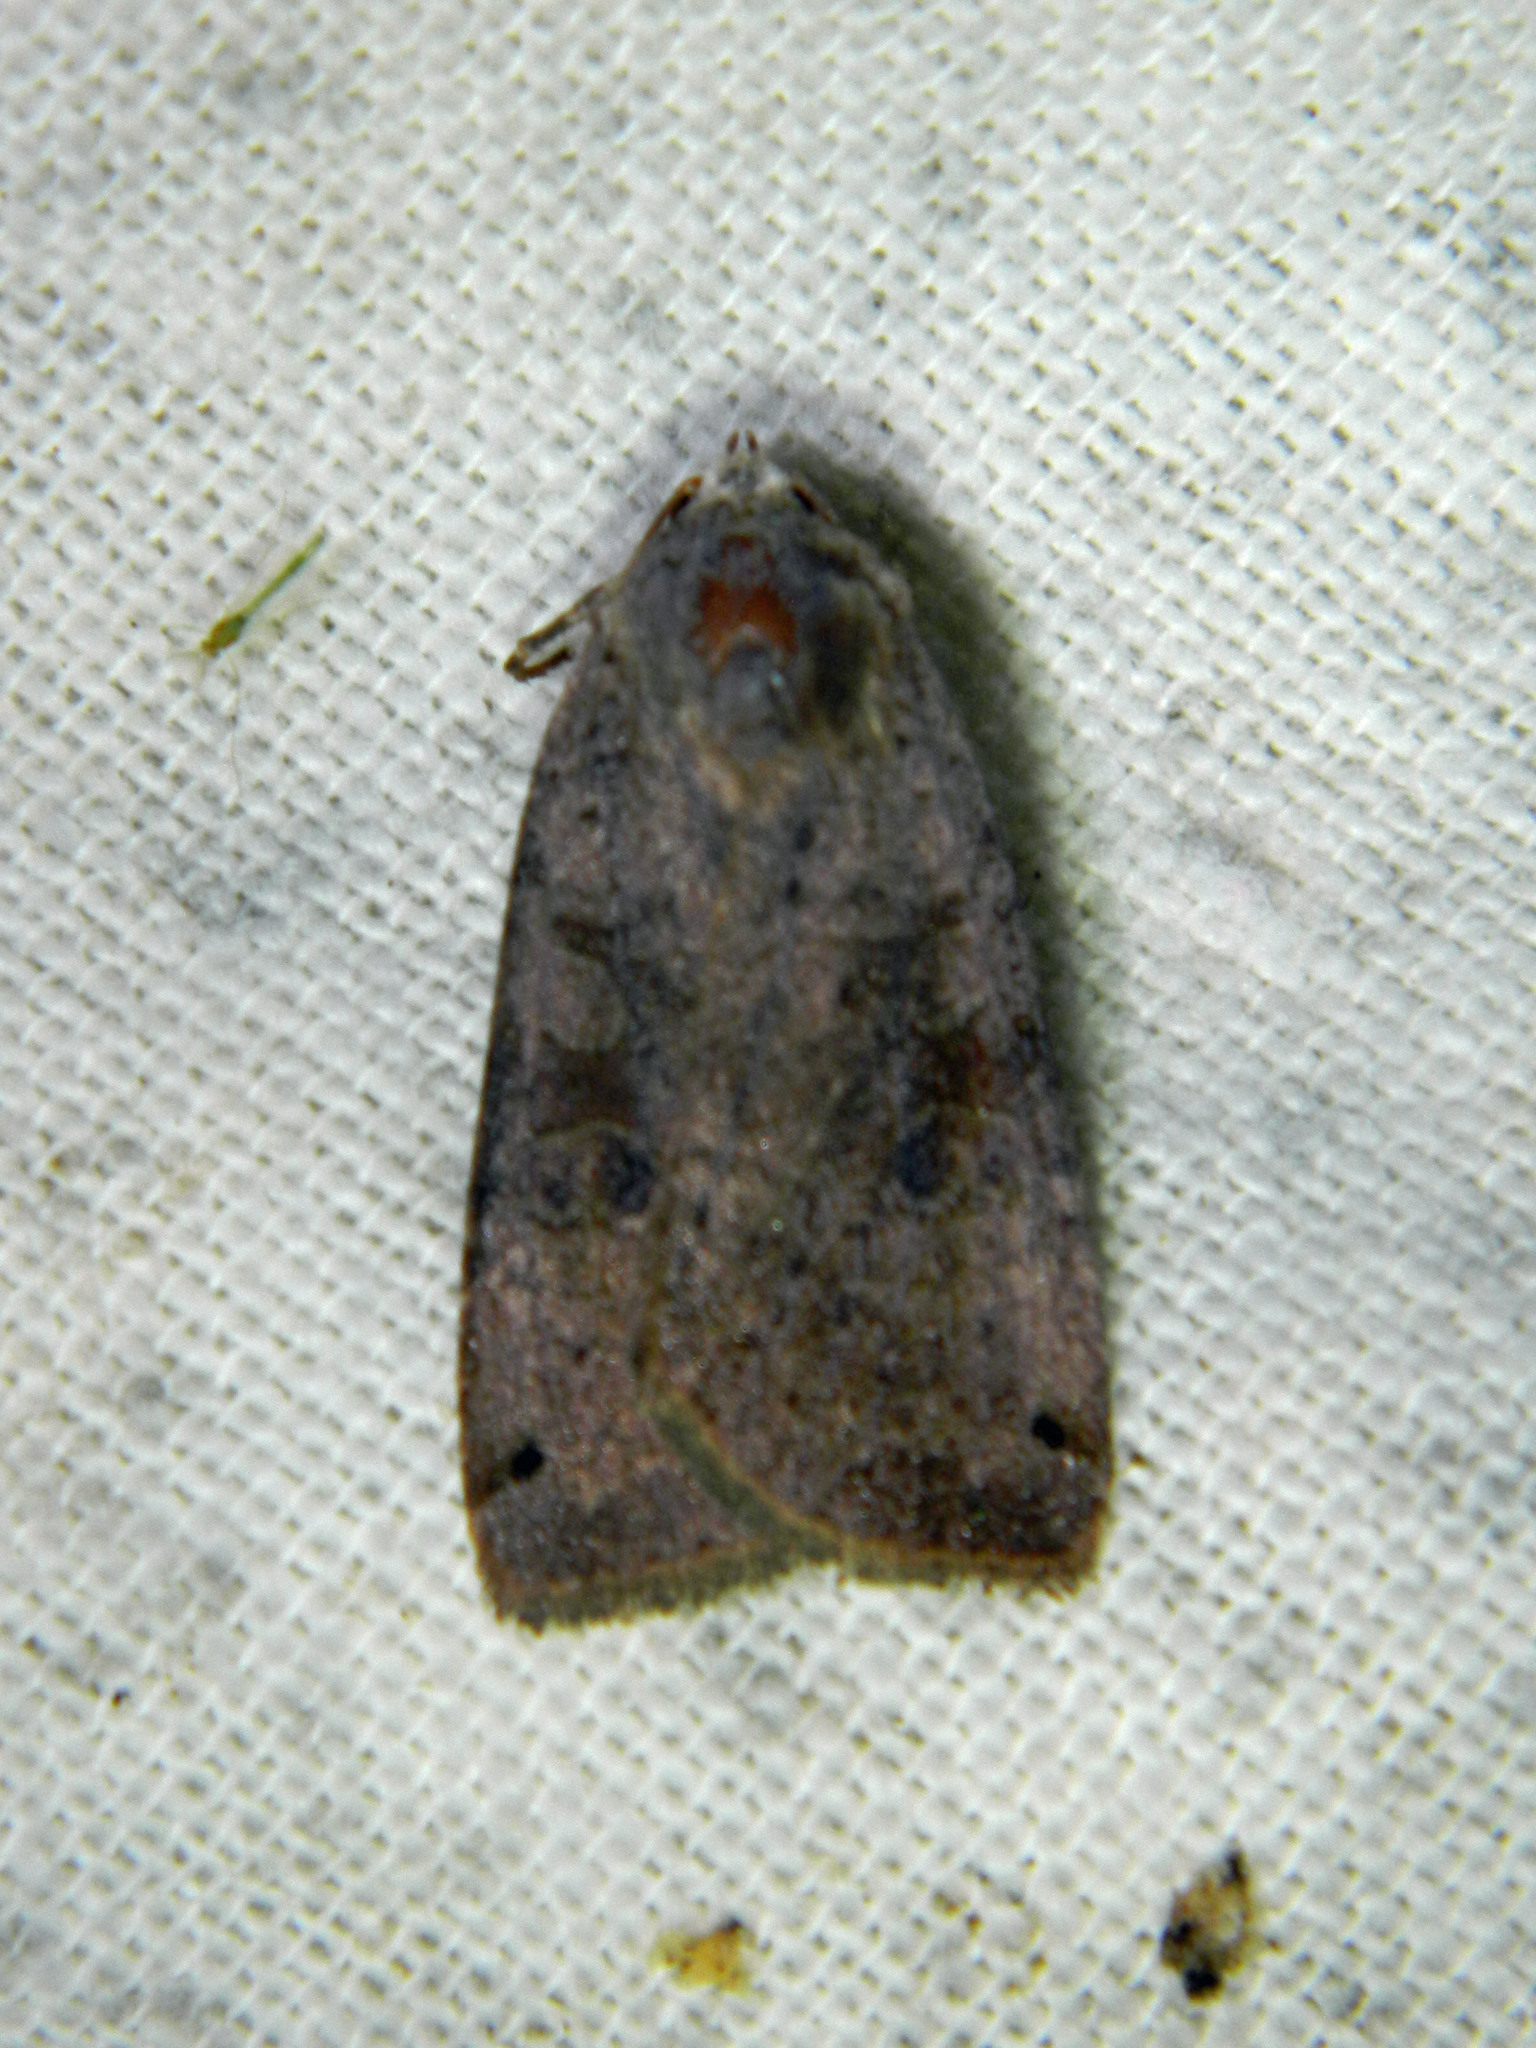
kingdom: Animalia
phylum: Arthropoda
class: Insecta
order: Lepidoptera
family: Noctuidae
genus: Xestia
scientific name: Xestia smithii
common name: Smith's dart
